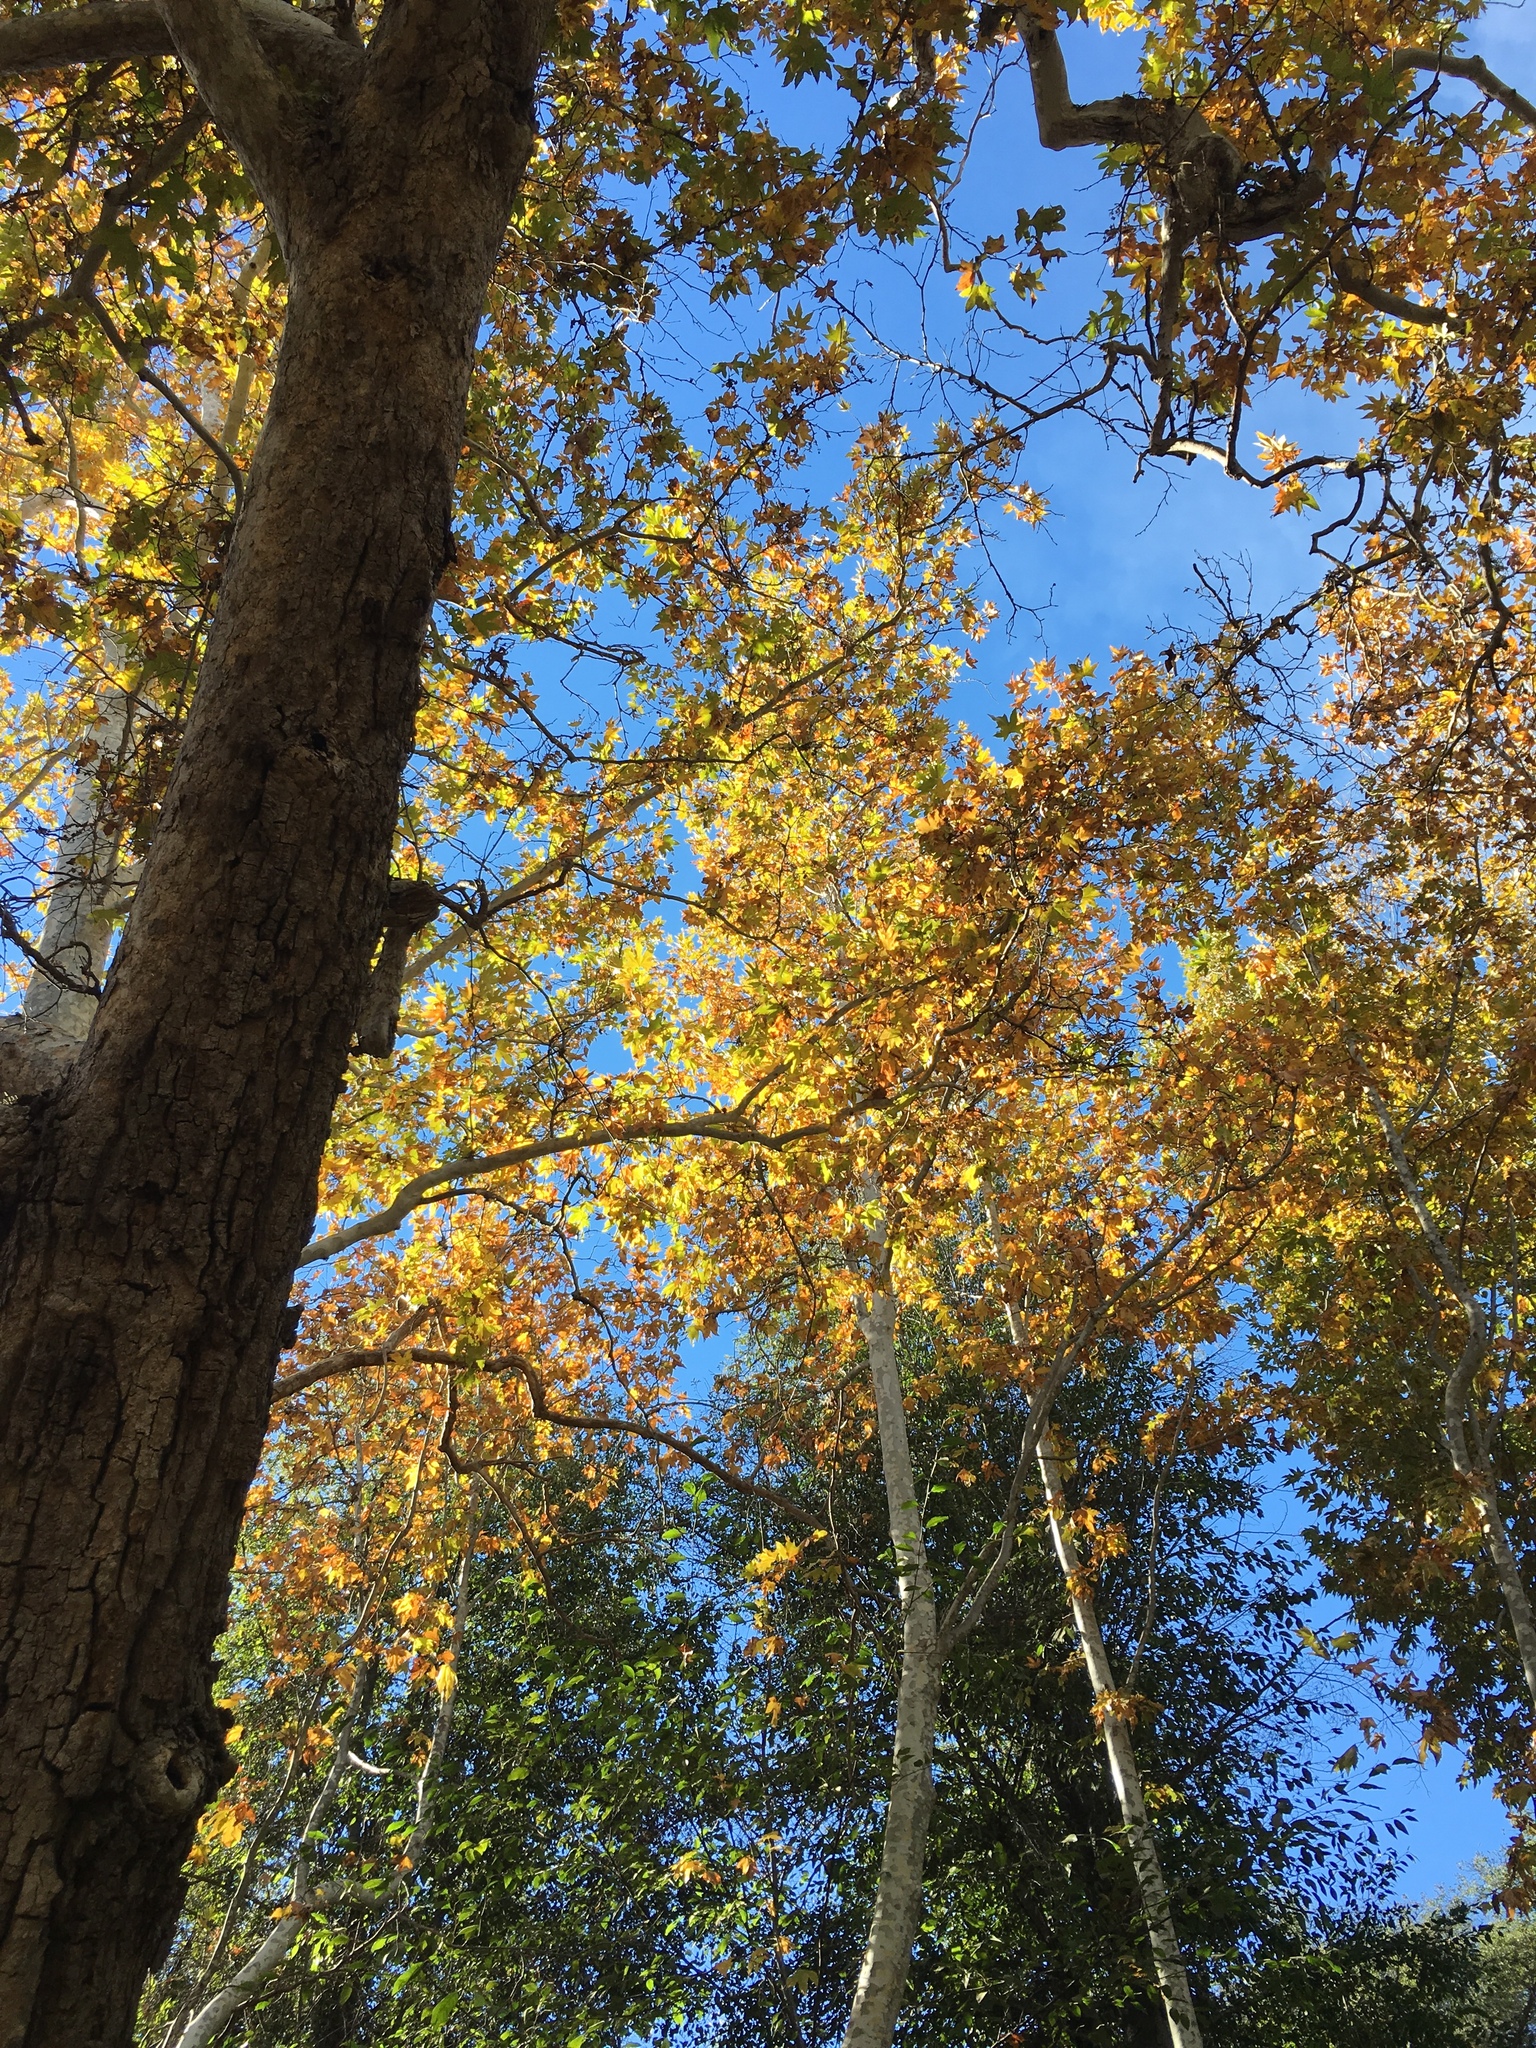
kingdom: Plantae
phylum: Tracheophyta
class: Magnoliopsida
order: Proteales
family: Platanaceae
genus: Platanus
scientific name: Platanus racemosa
